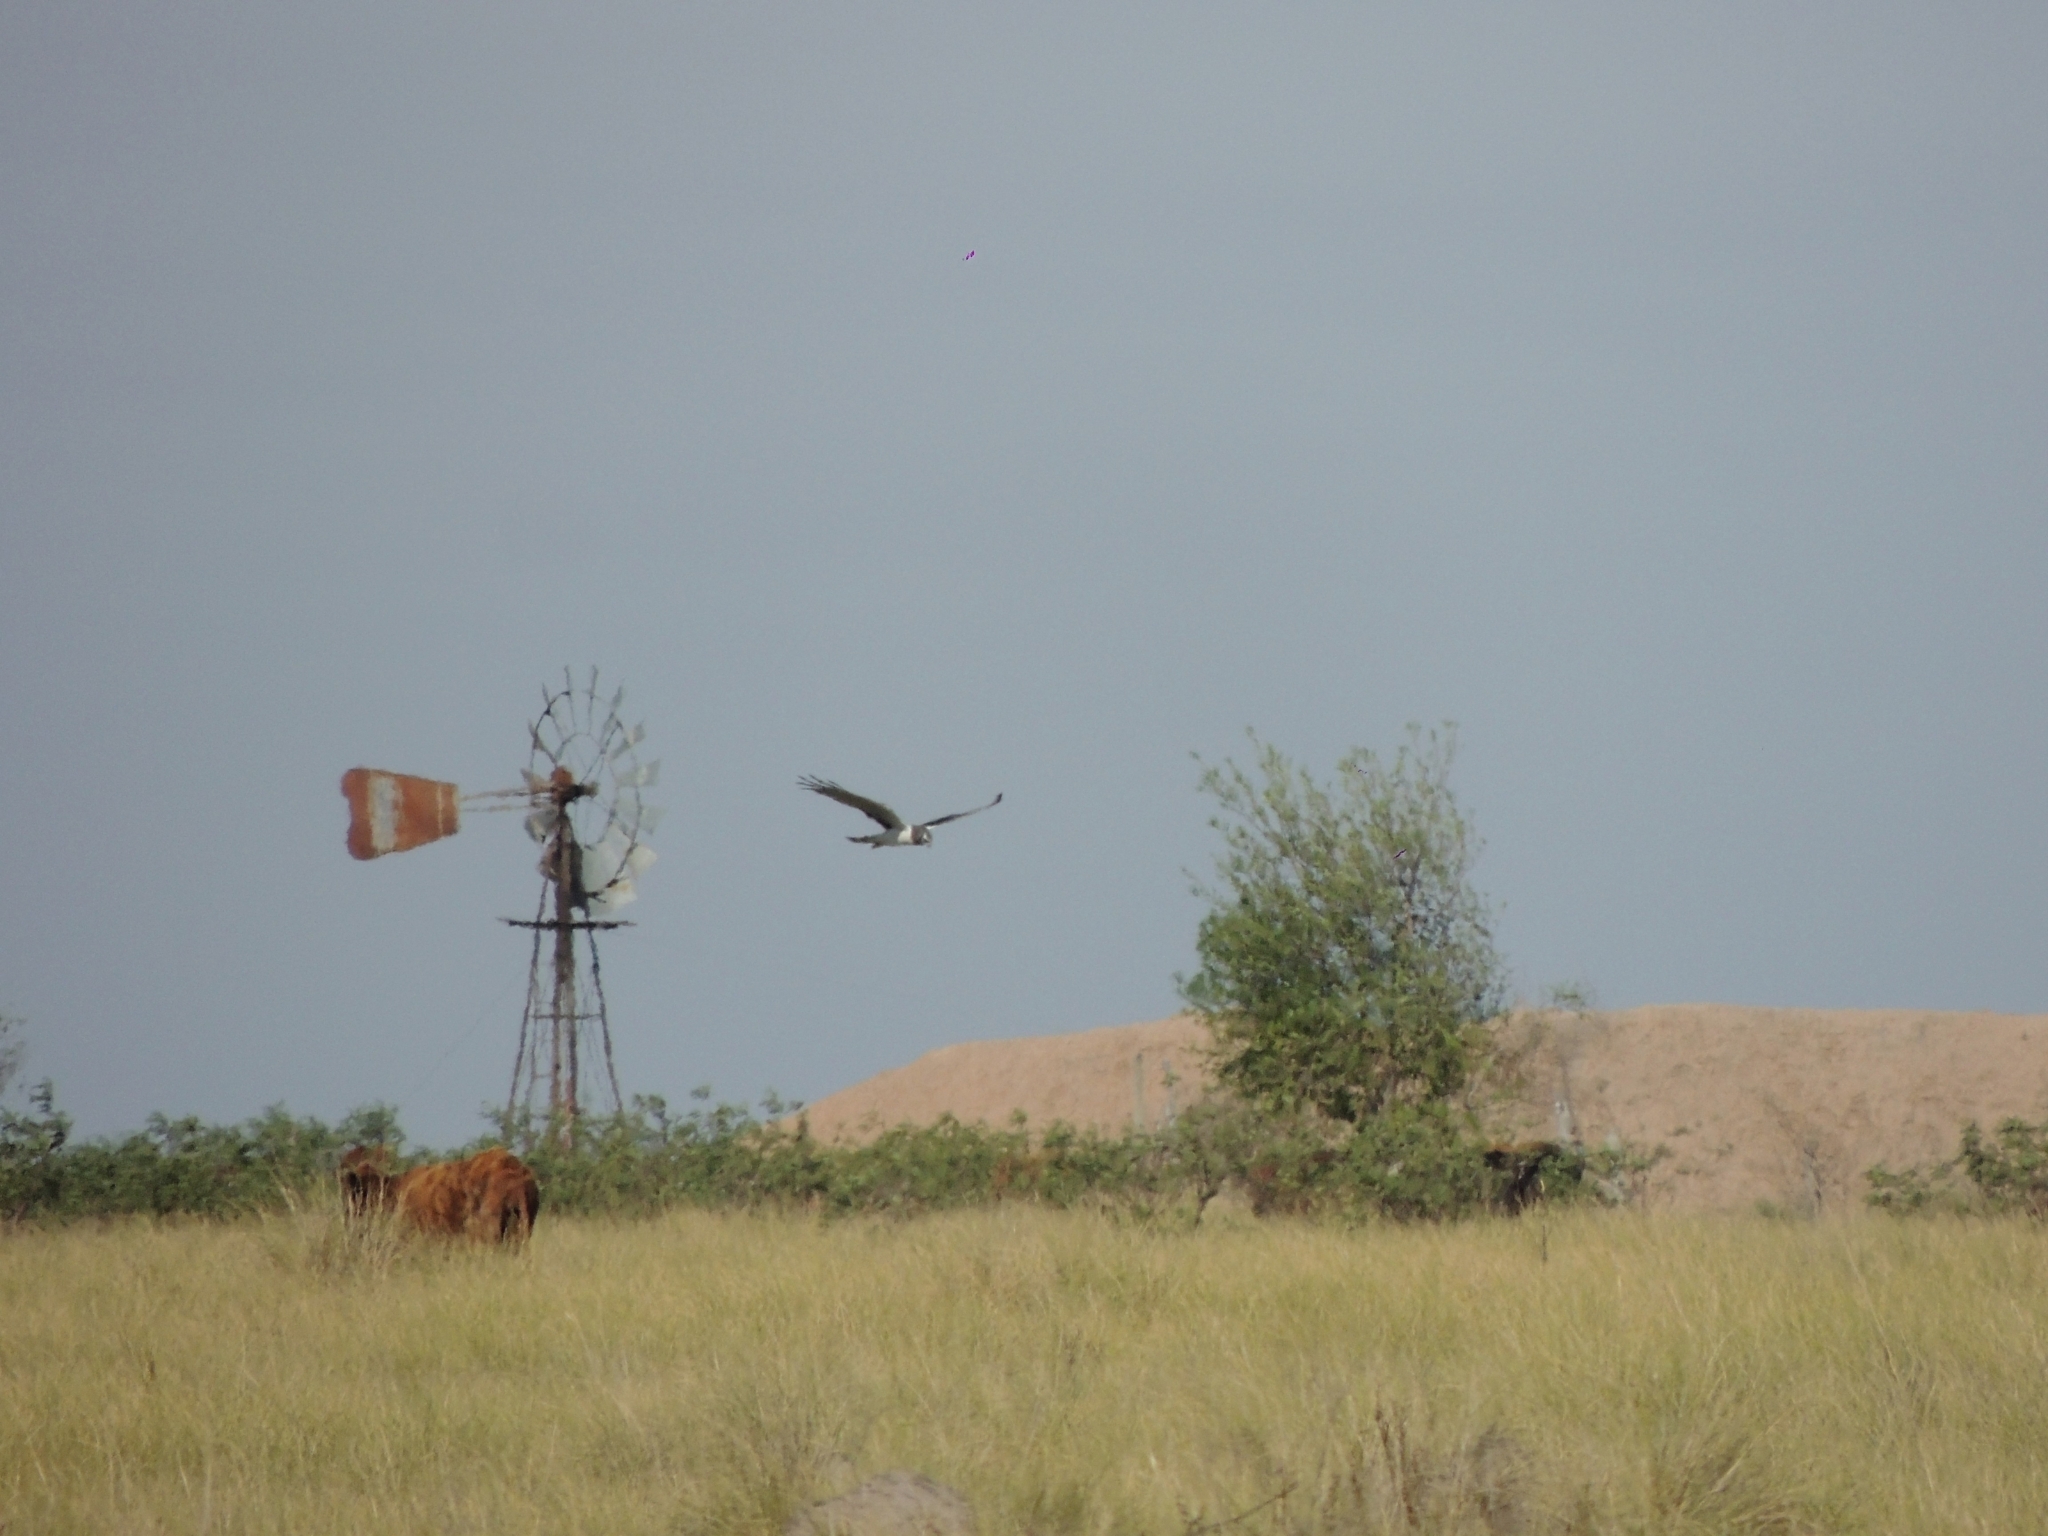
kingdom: Animalia
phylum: Chordata
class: Aves
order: Accipitriformes
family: Accipitridae
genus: Circus
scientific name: Circus buffoni
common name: Long-winged harrier
